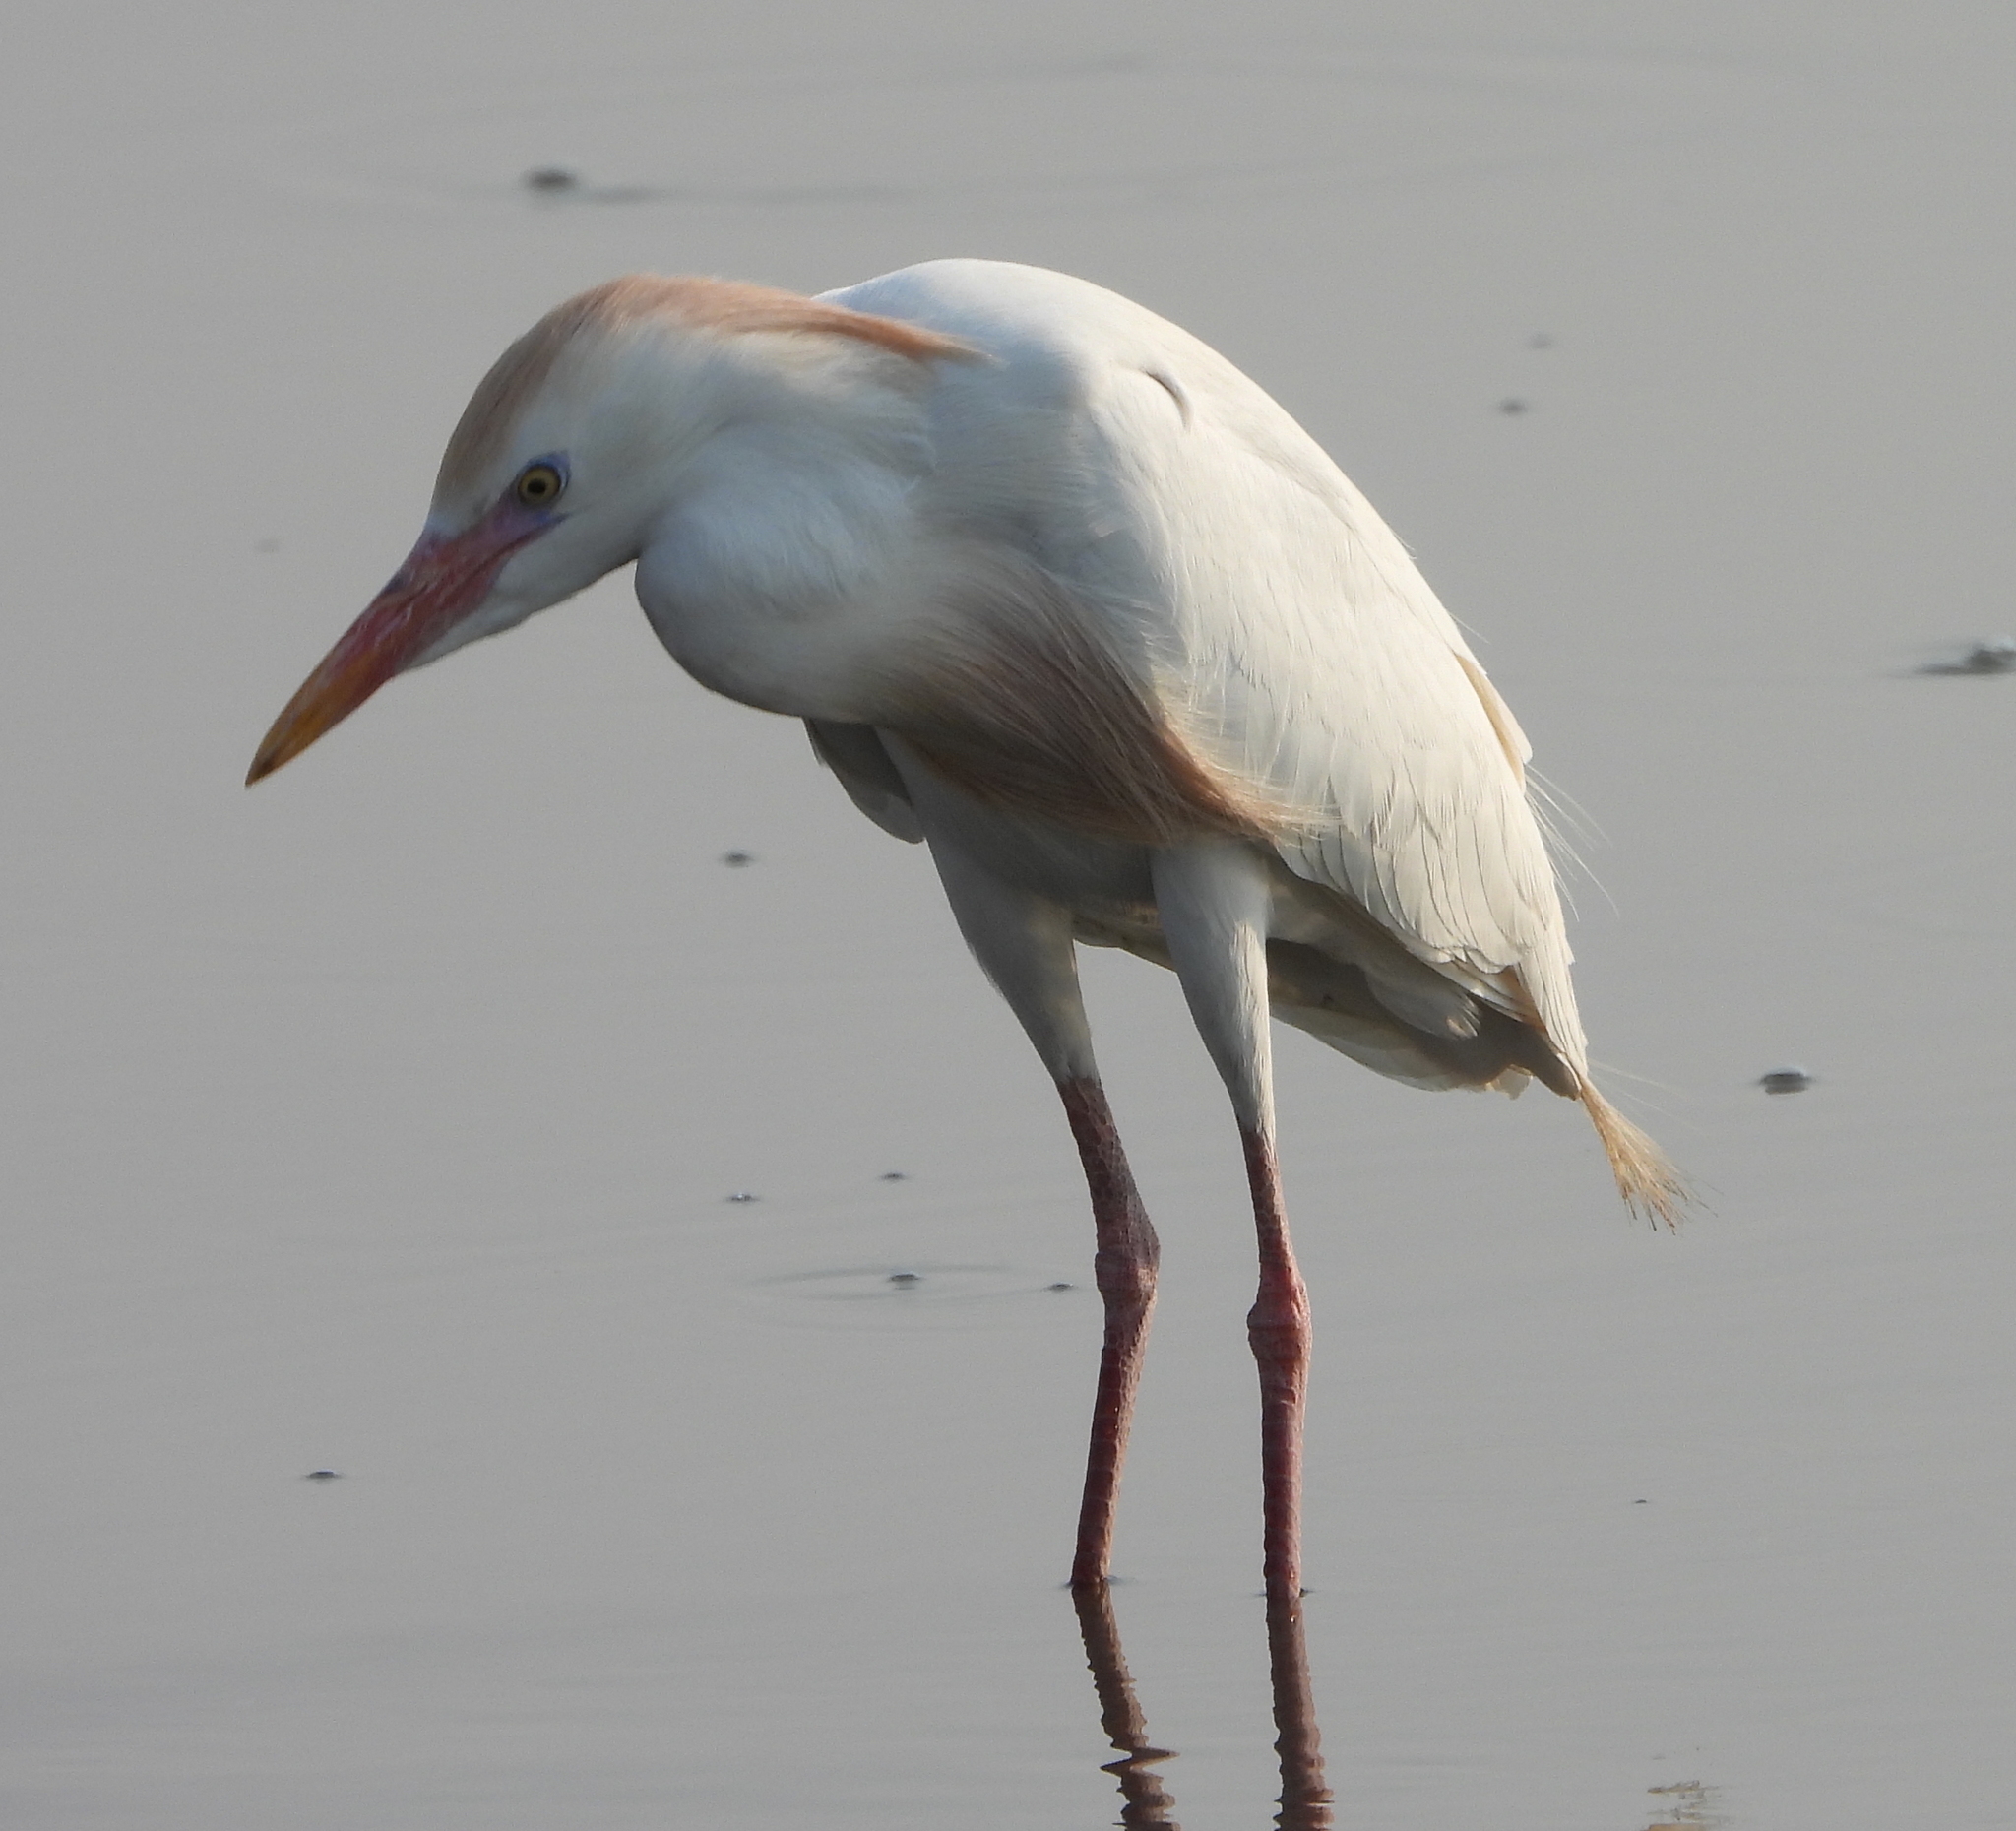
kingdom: Animalia
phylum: Chordata
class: Aves
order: Pelecaniformes
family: Ardeidae
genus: Bubulcus
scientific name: Bubulcus ibis
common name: Cattle egret
